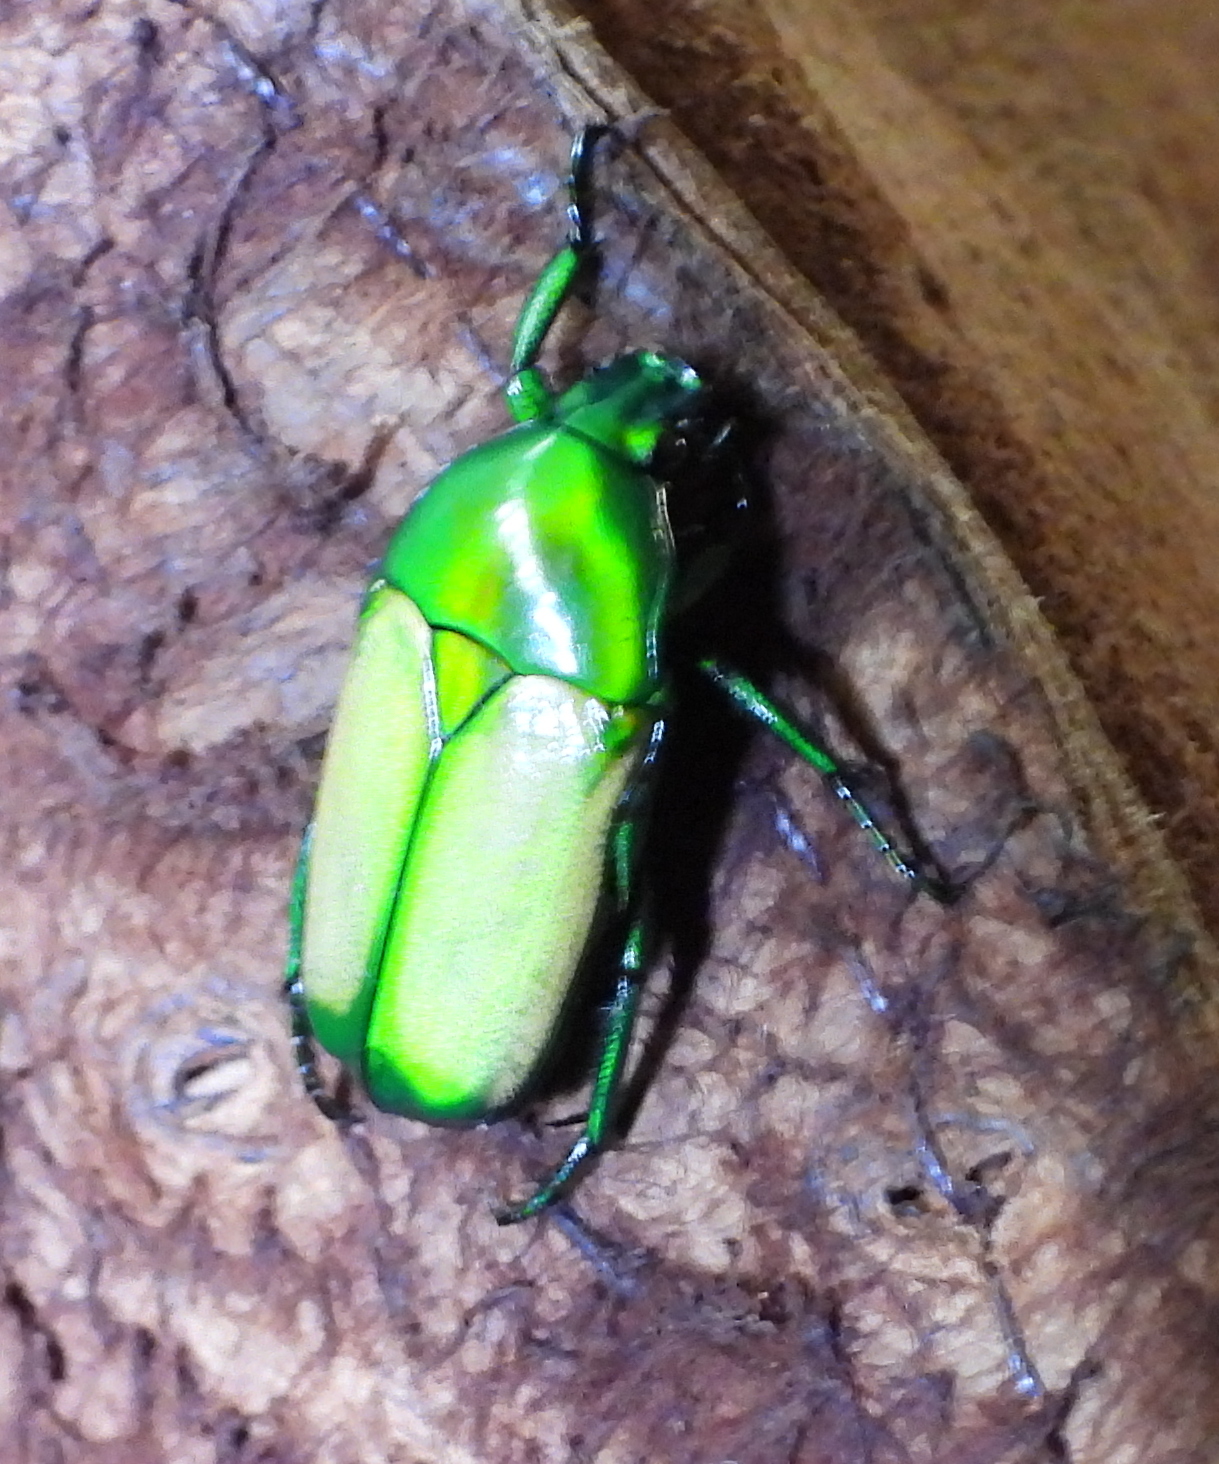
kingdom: Animalia
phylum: Arthropoda
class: Insecta
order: Coleoptera
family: Scarabaeidae
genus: Chlorocala
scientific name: Chlorocala africana
